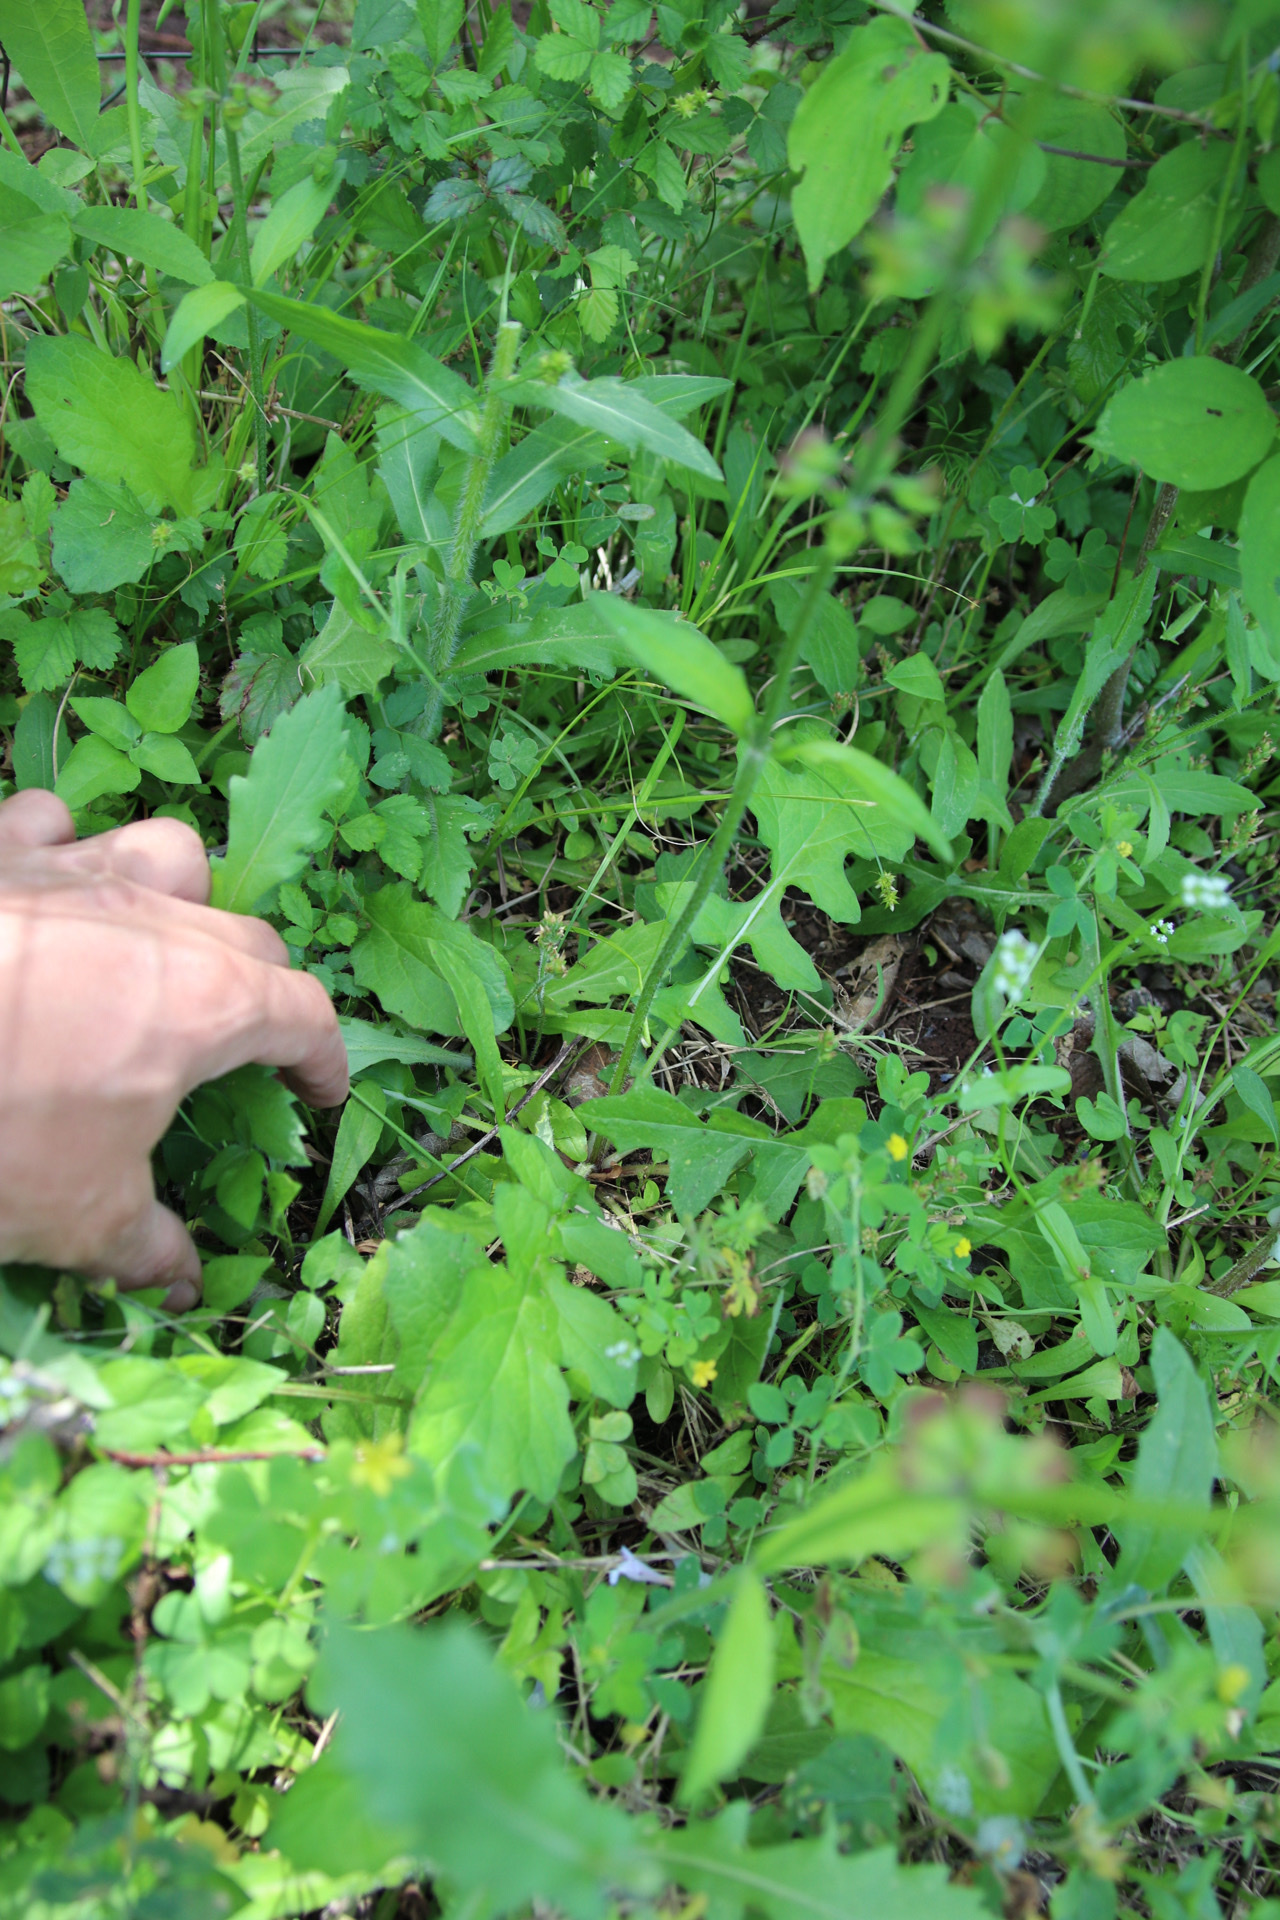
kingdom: Plantae
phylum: Tracheophyta
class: Magnoliopsida
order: Lamiales
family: Lamiaceae
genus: Salvia
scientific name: Salvia lyrata
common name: Cancerweed
